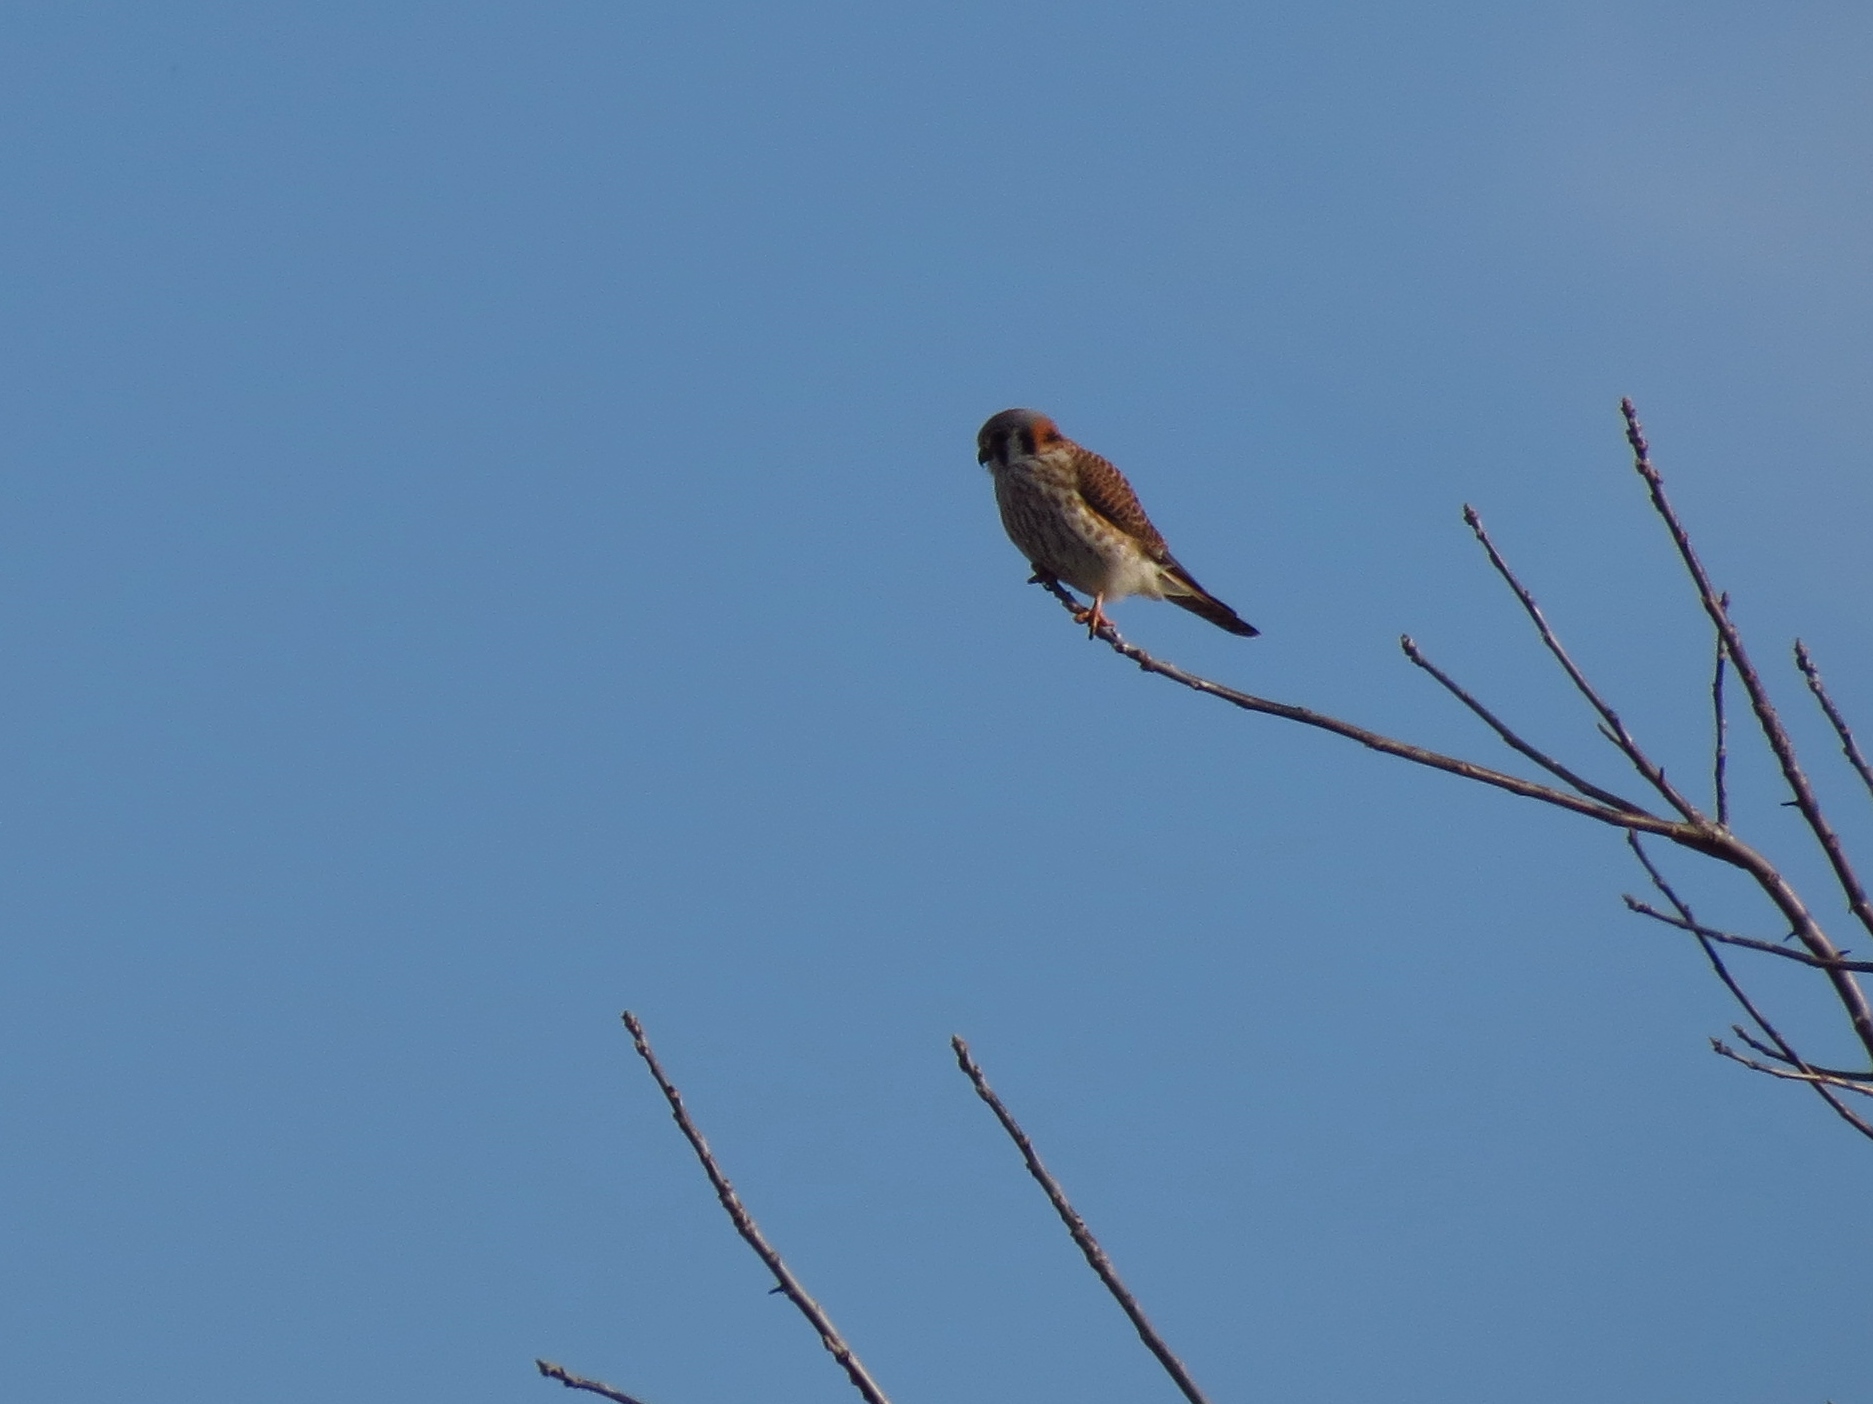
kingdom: Animalia
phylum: Chordata
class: Aves
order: Falconiformes
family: Falconidae
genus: Falco
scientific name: Falco sparverius
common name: American kestrel
